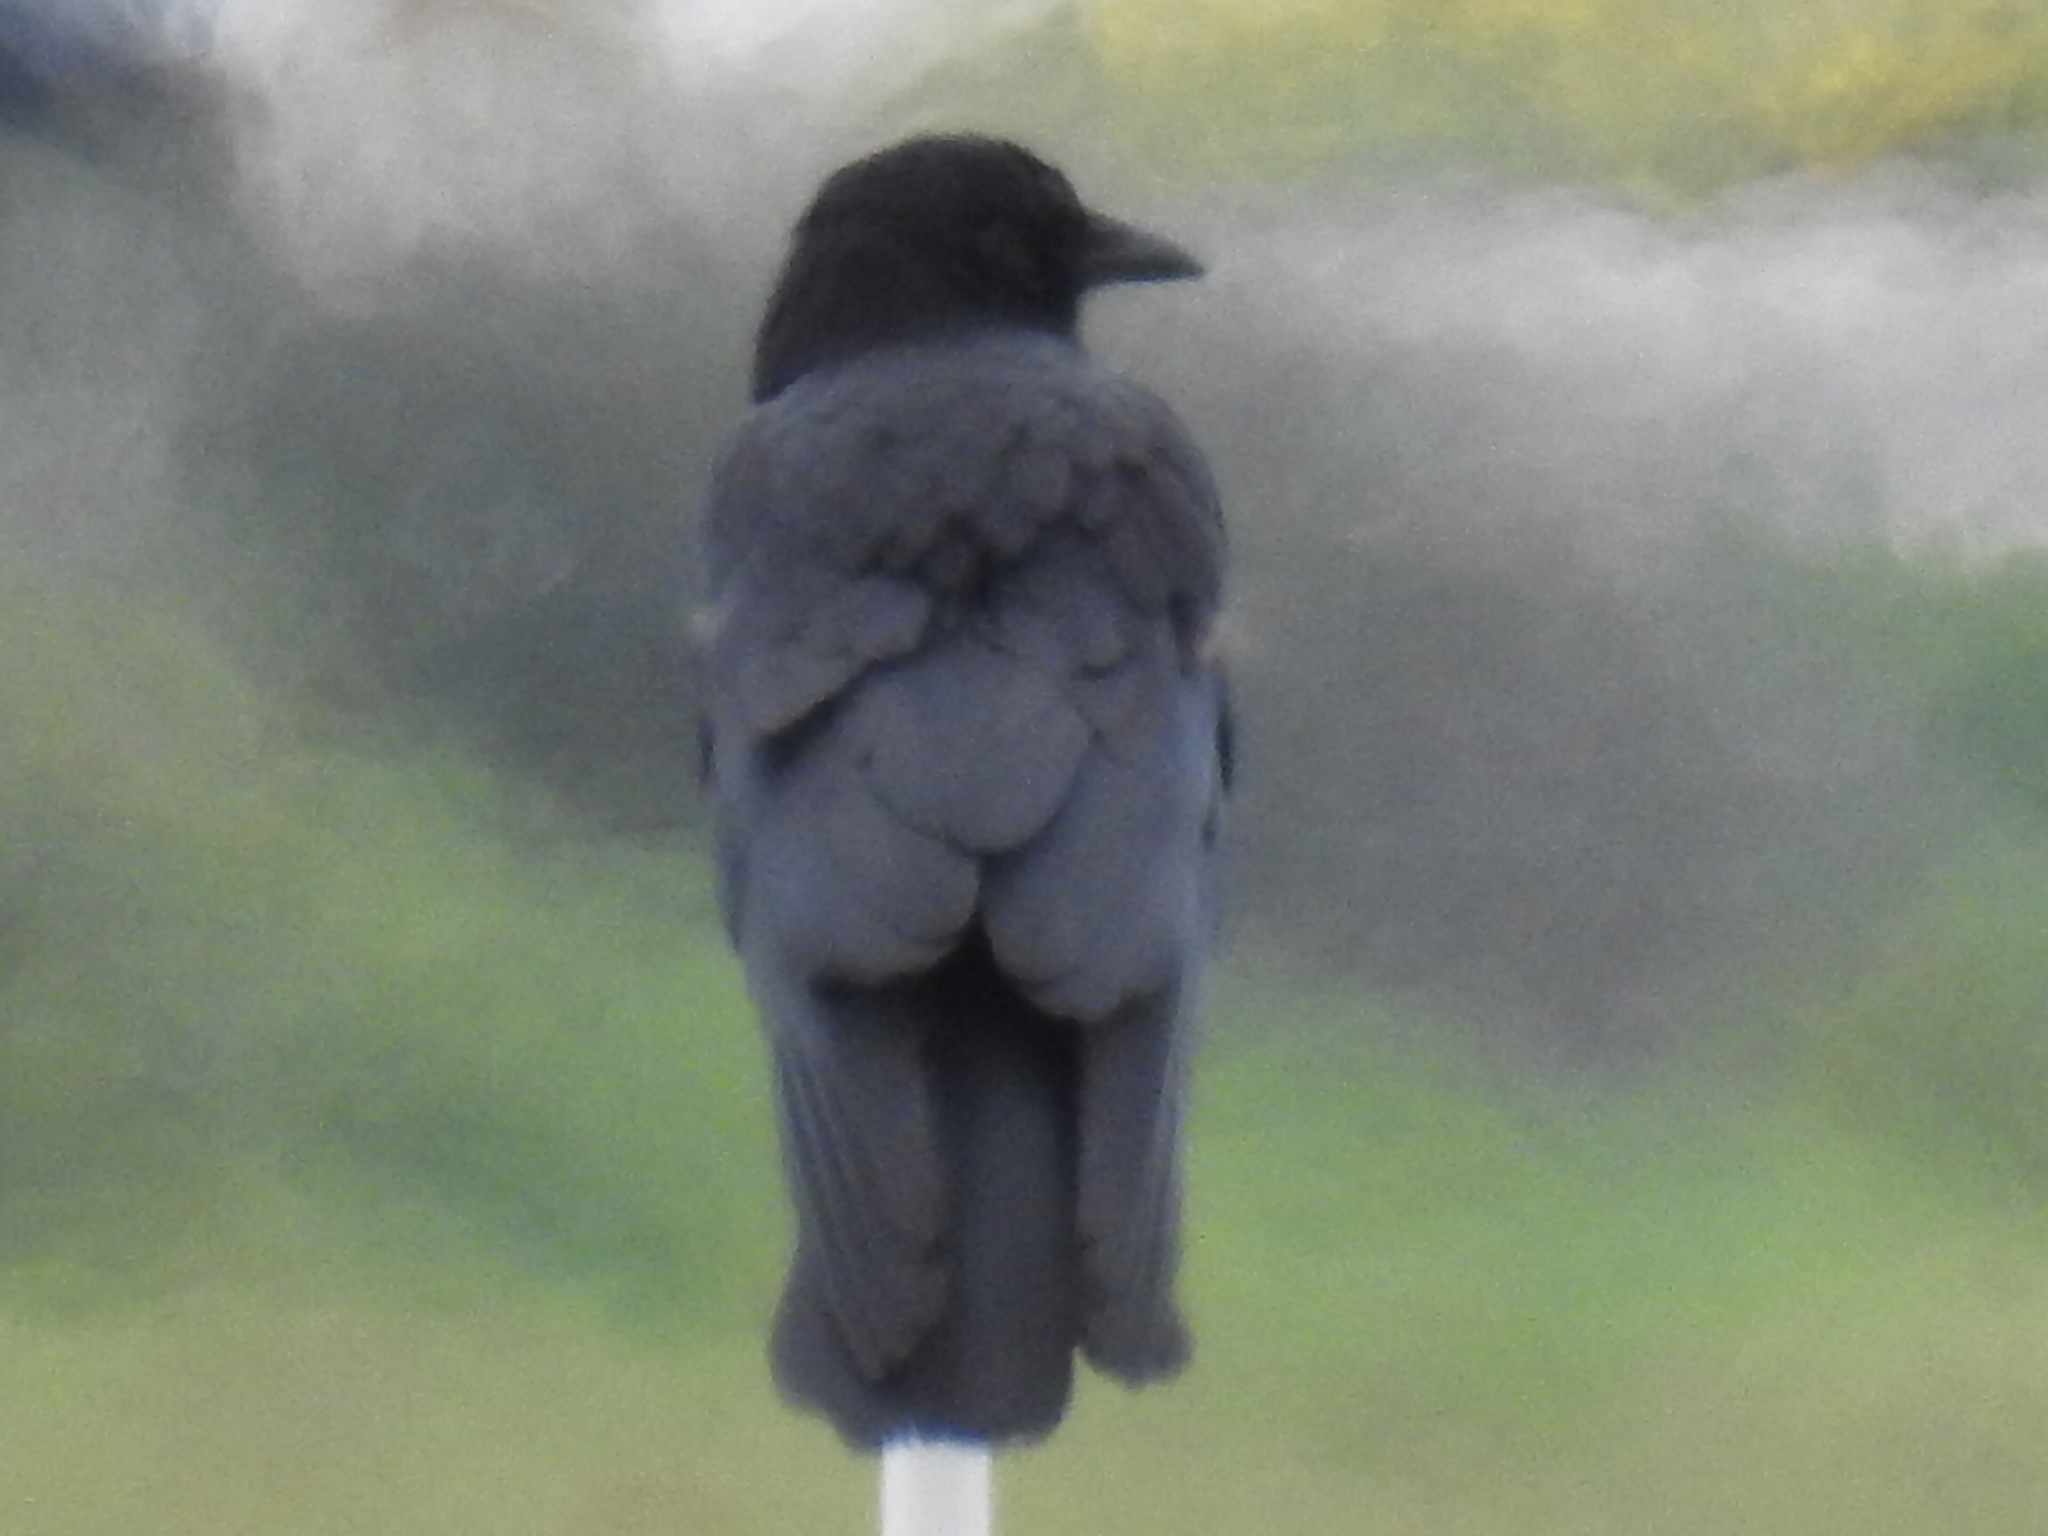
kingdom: Animalia
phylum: Chordata
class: Aves
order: Passeriformes
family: Corvidae
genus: Corvus
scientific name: Corvus brachyrhynchos
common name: American crow
